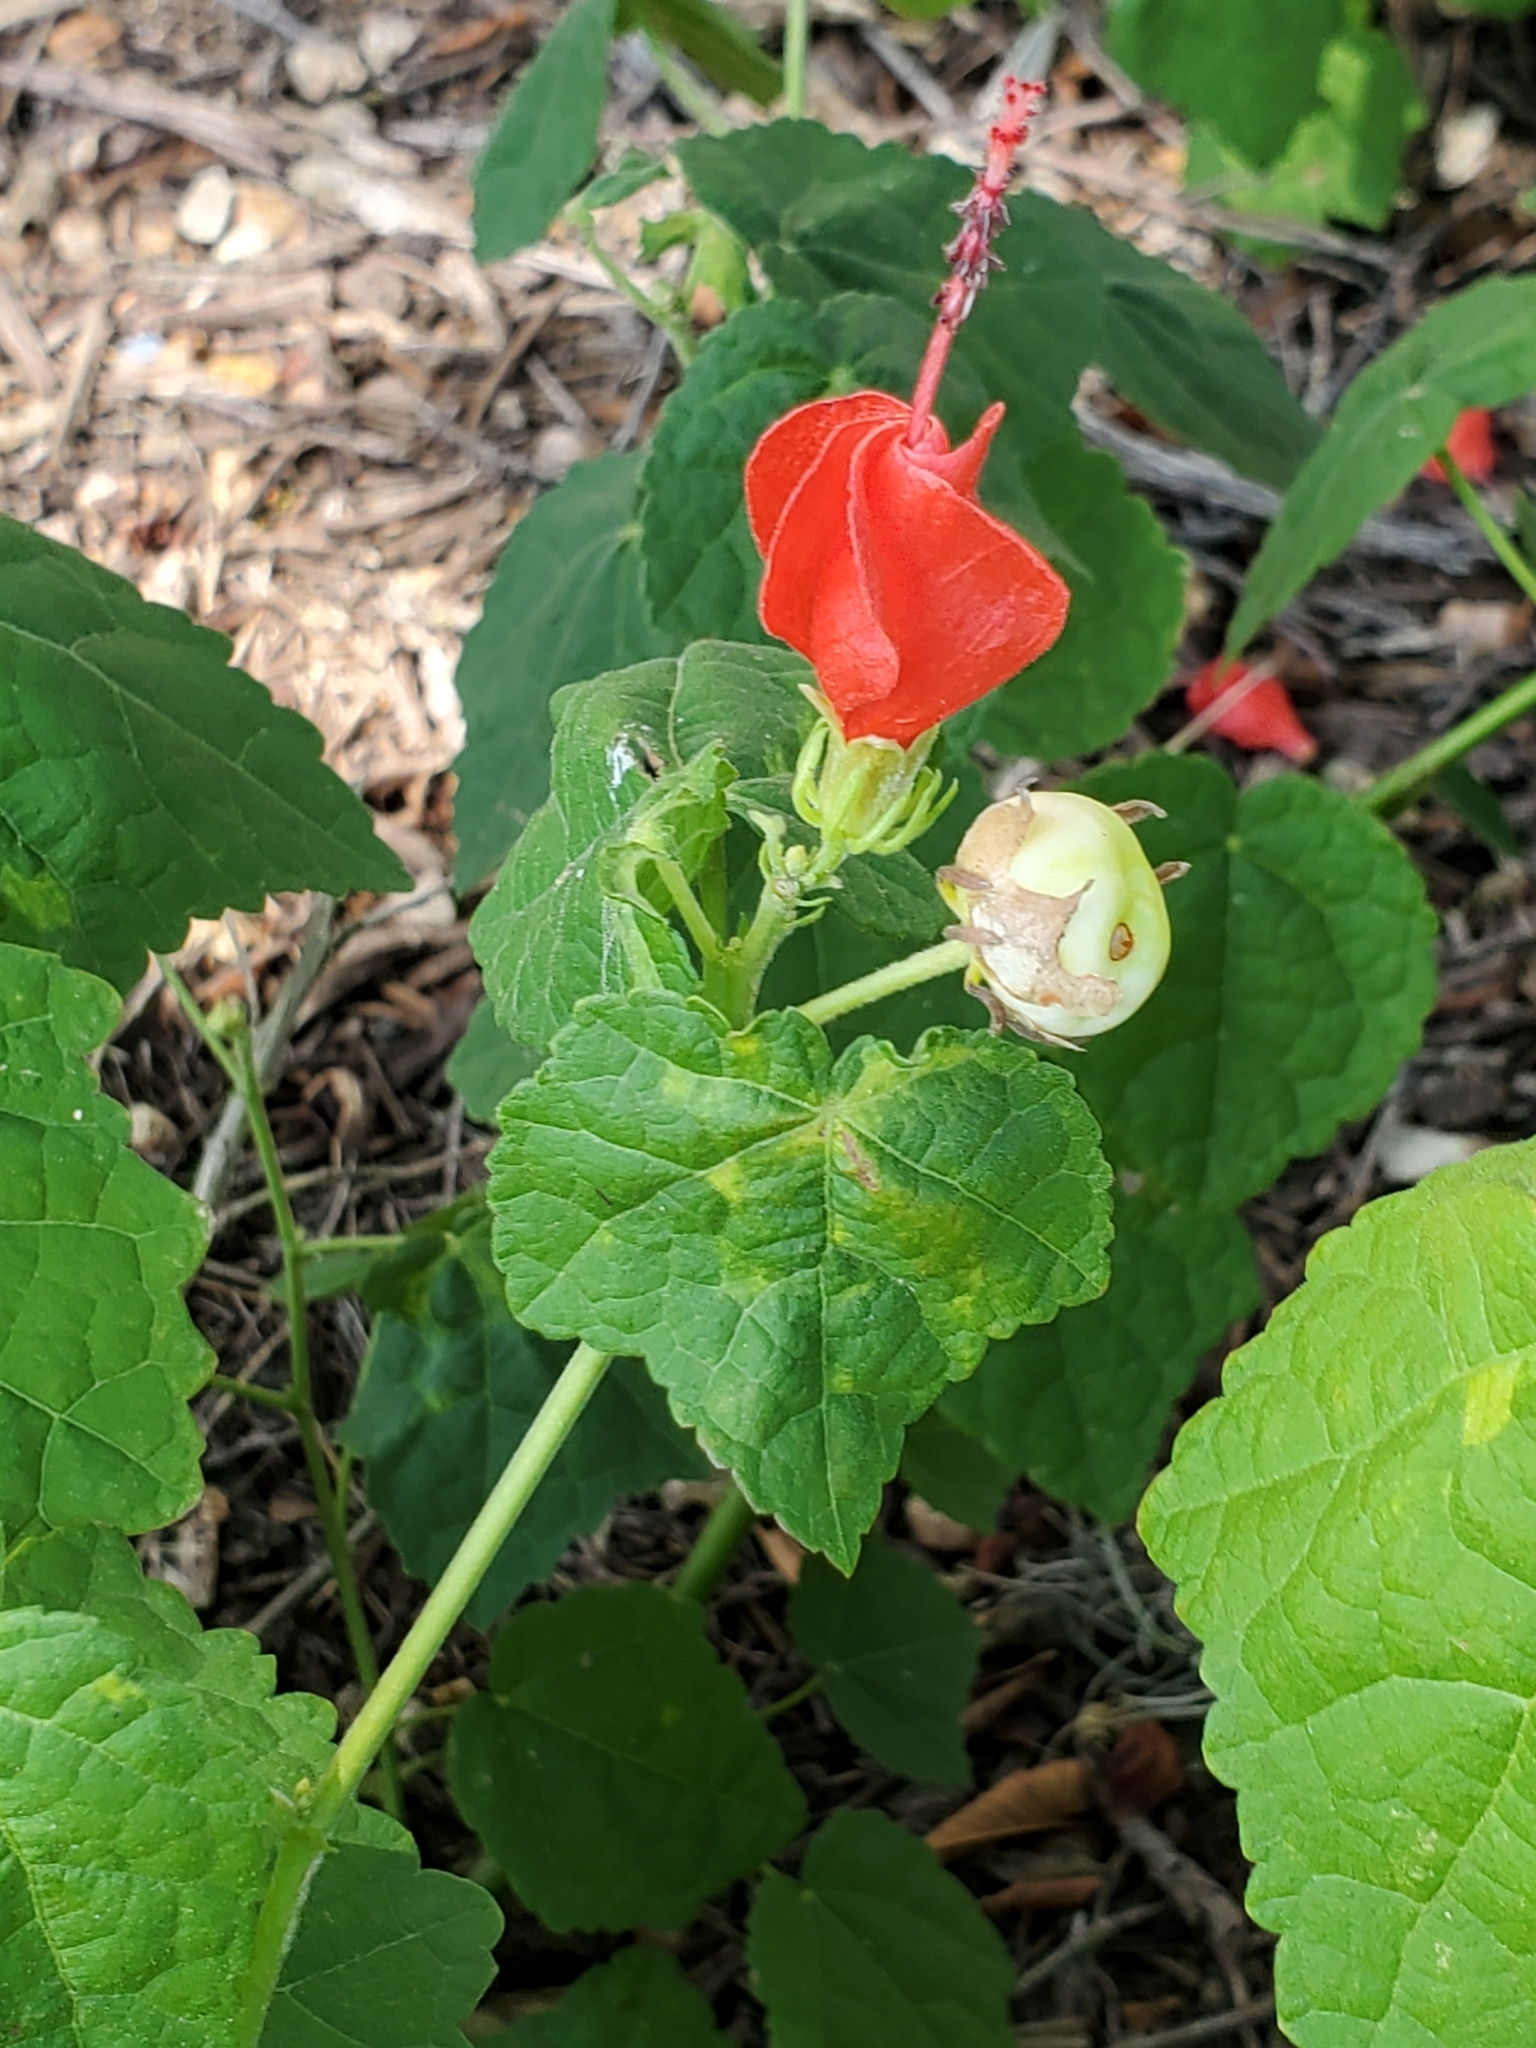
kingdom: Plantae
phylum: Tracheophyta
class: Magnoliopsida
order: Malvales
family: Malvaceae
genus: Malvaviscus
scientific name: Malvaviscus arboreus
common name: Wax mallow
